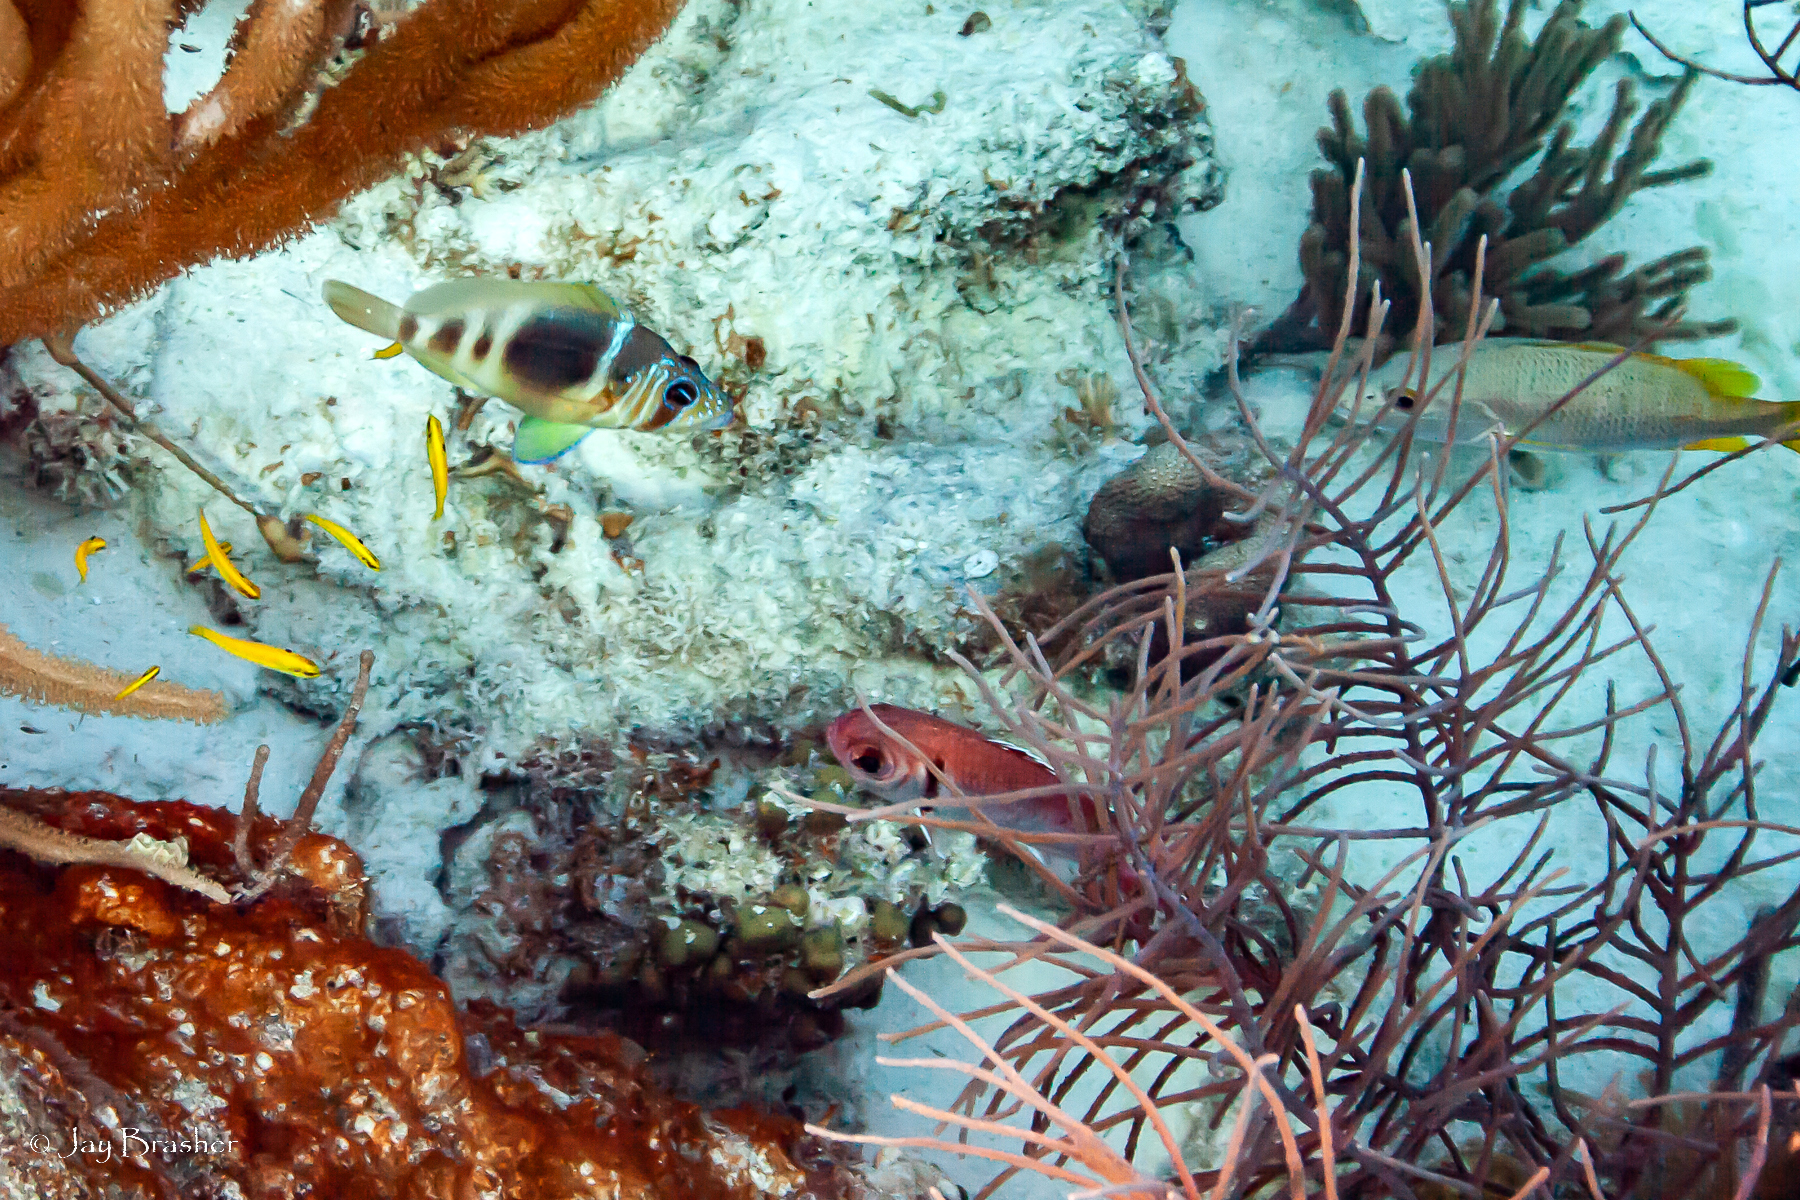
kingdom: Animalia
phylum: Chordata
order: Beryciformes
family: Holocentridae
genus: Myripristis
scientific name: Myripristis jacobus
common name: Blackbar soldierfish
